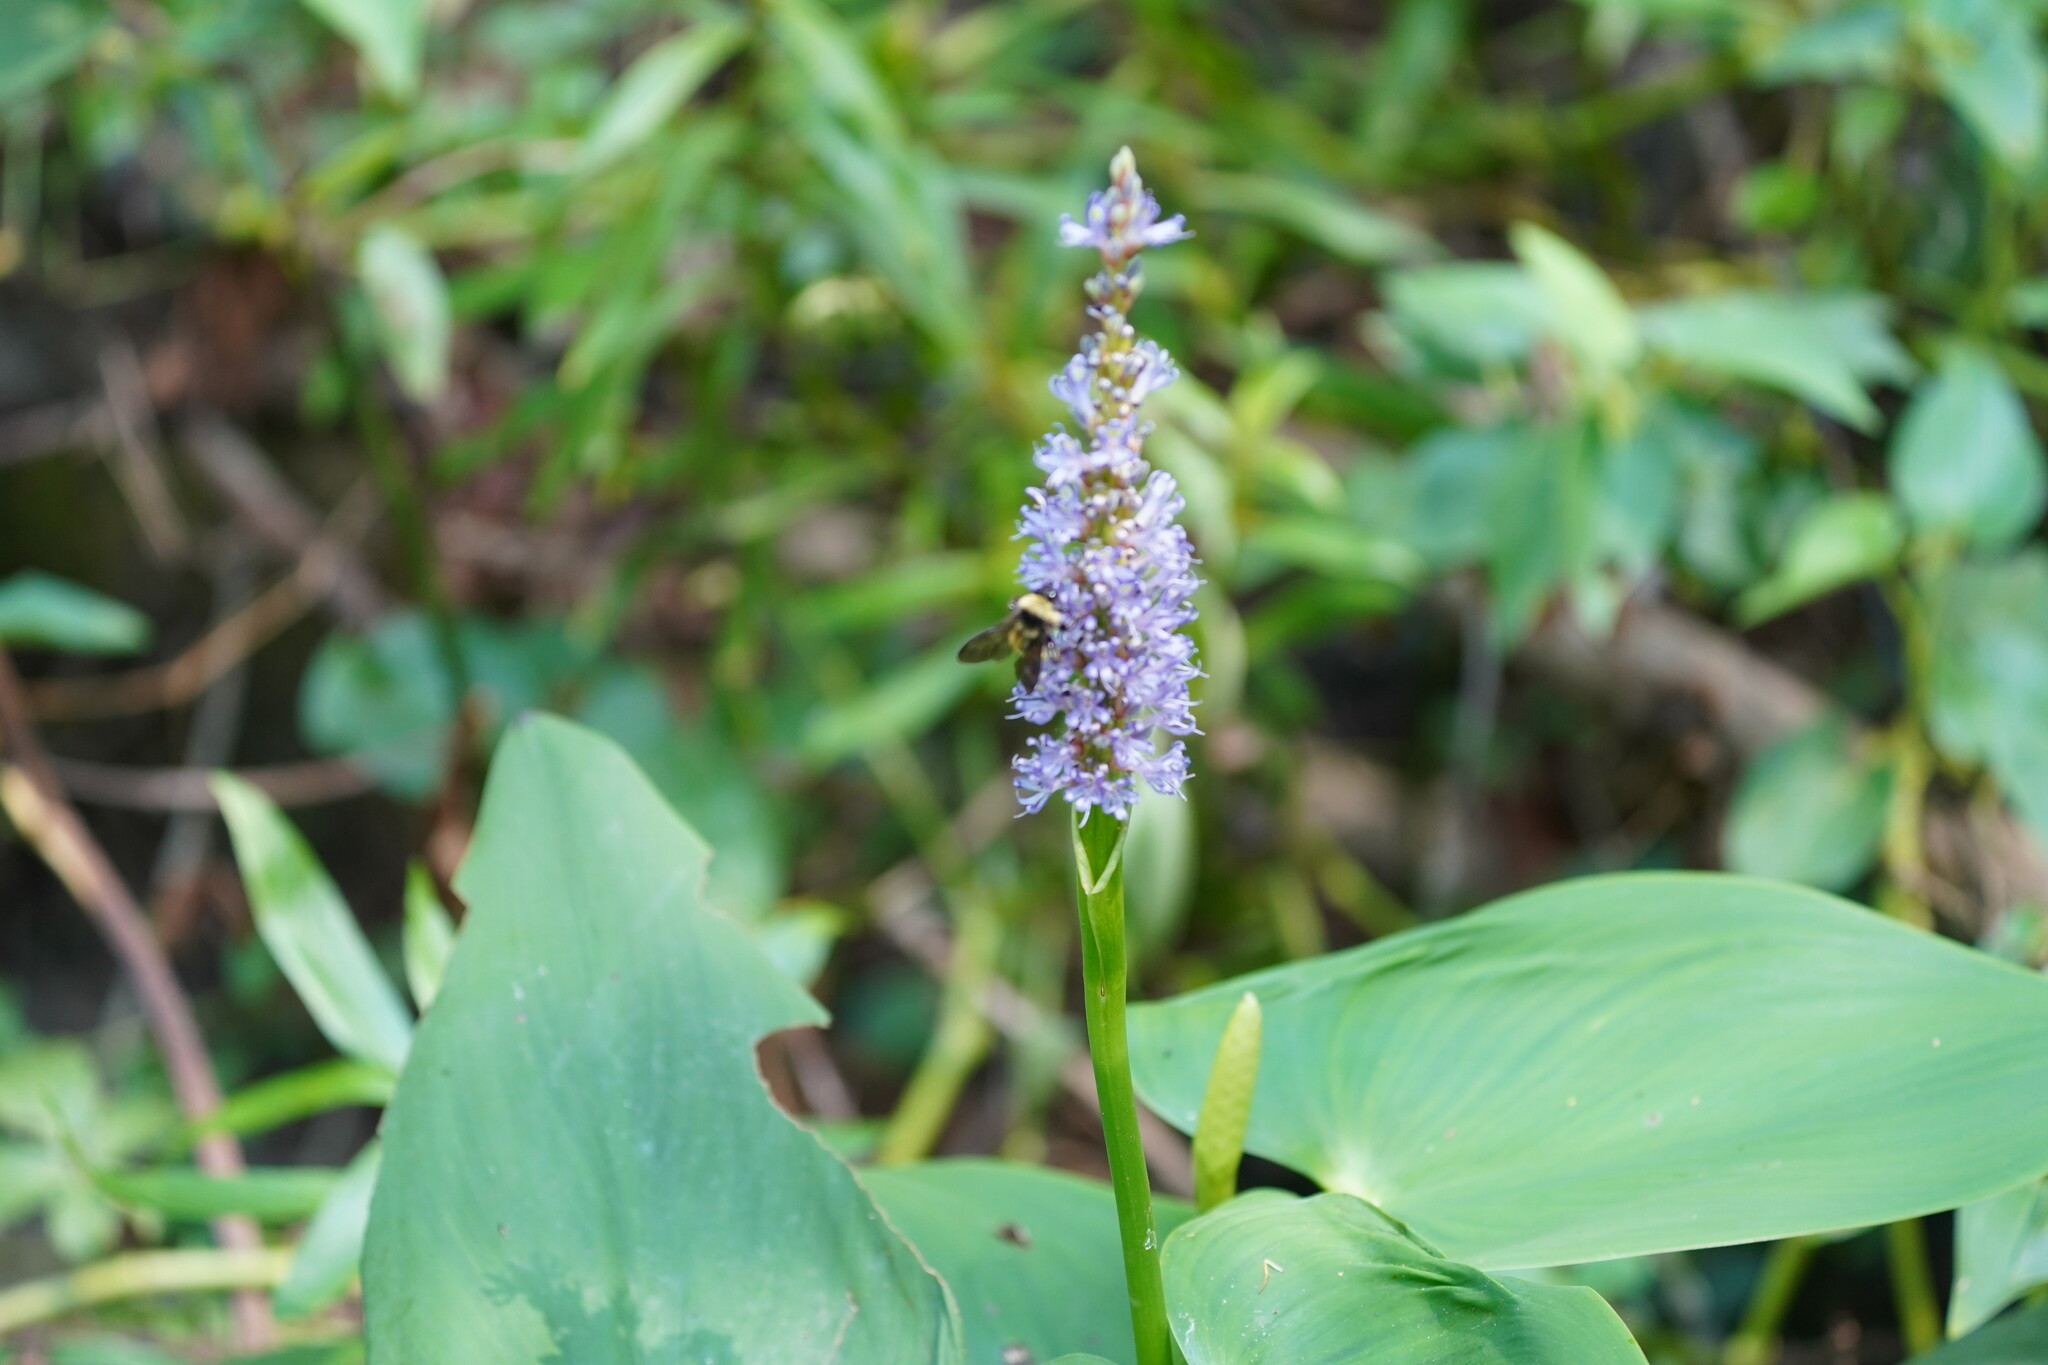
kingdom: Animalia
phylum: Arthropoda
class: Insecta
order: Hymenoptera
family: Apidae
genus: Bombus
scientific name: Bombus pensylvanicus
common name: Bumble bee
